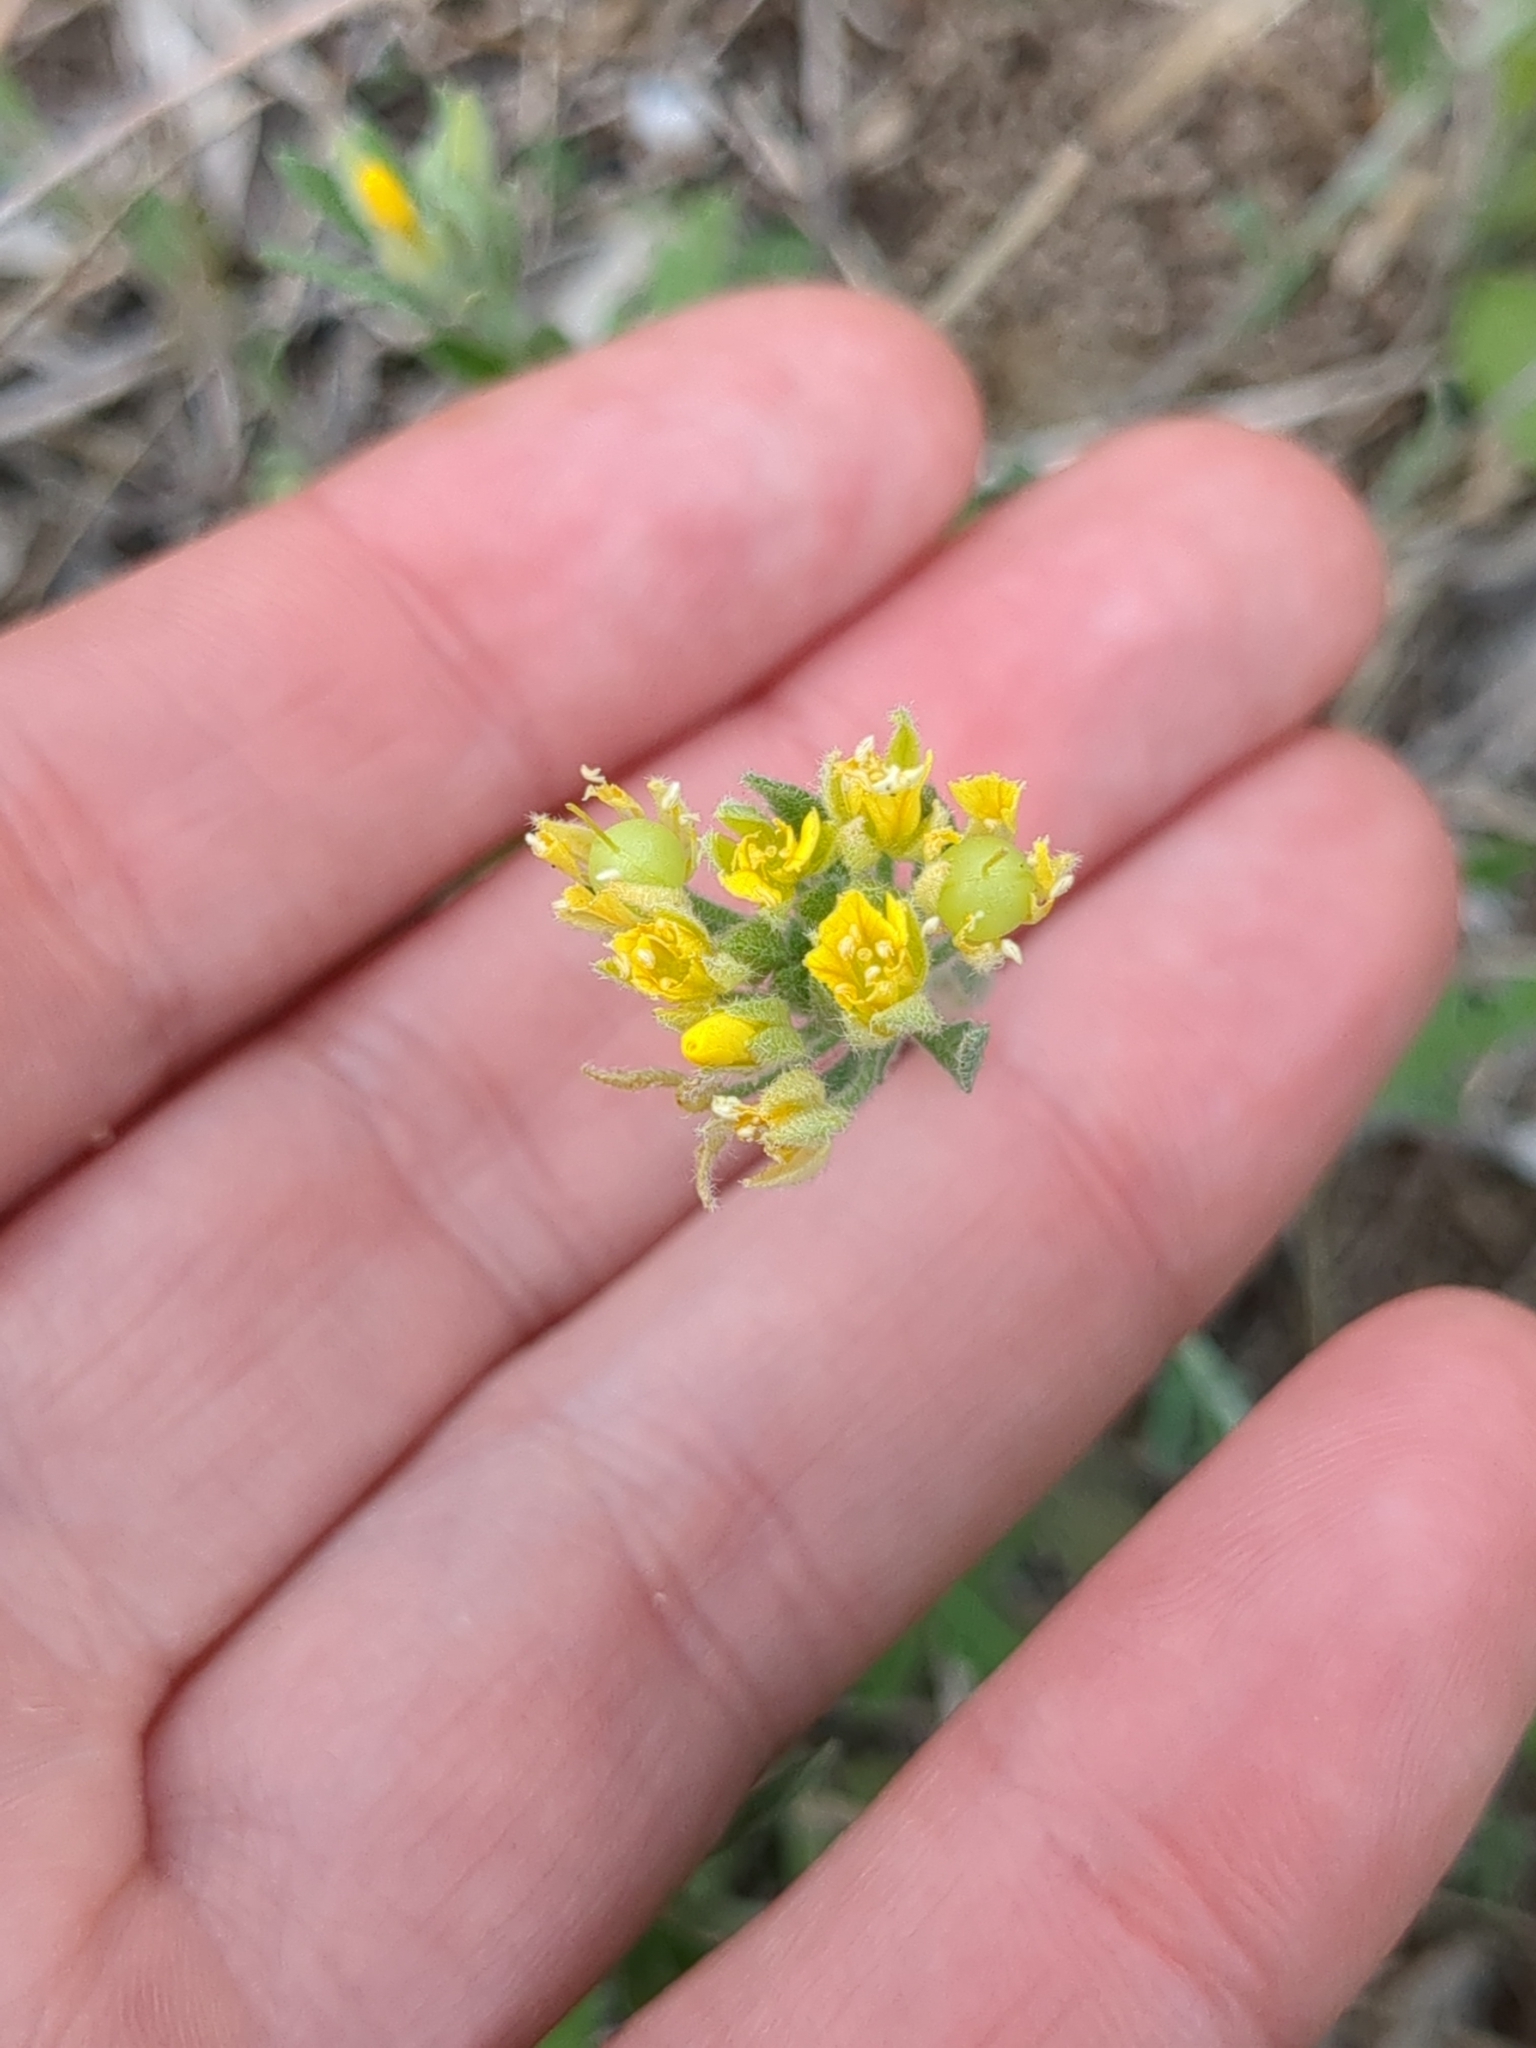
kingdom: Plantae
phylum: Tracheophyta
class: Magnoliopsida
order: Brassicales
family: Brassicaceae
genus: Physaria
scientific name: Physaria densiflora
